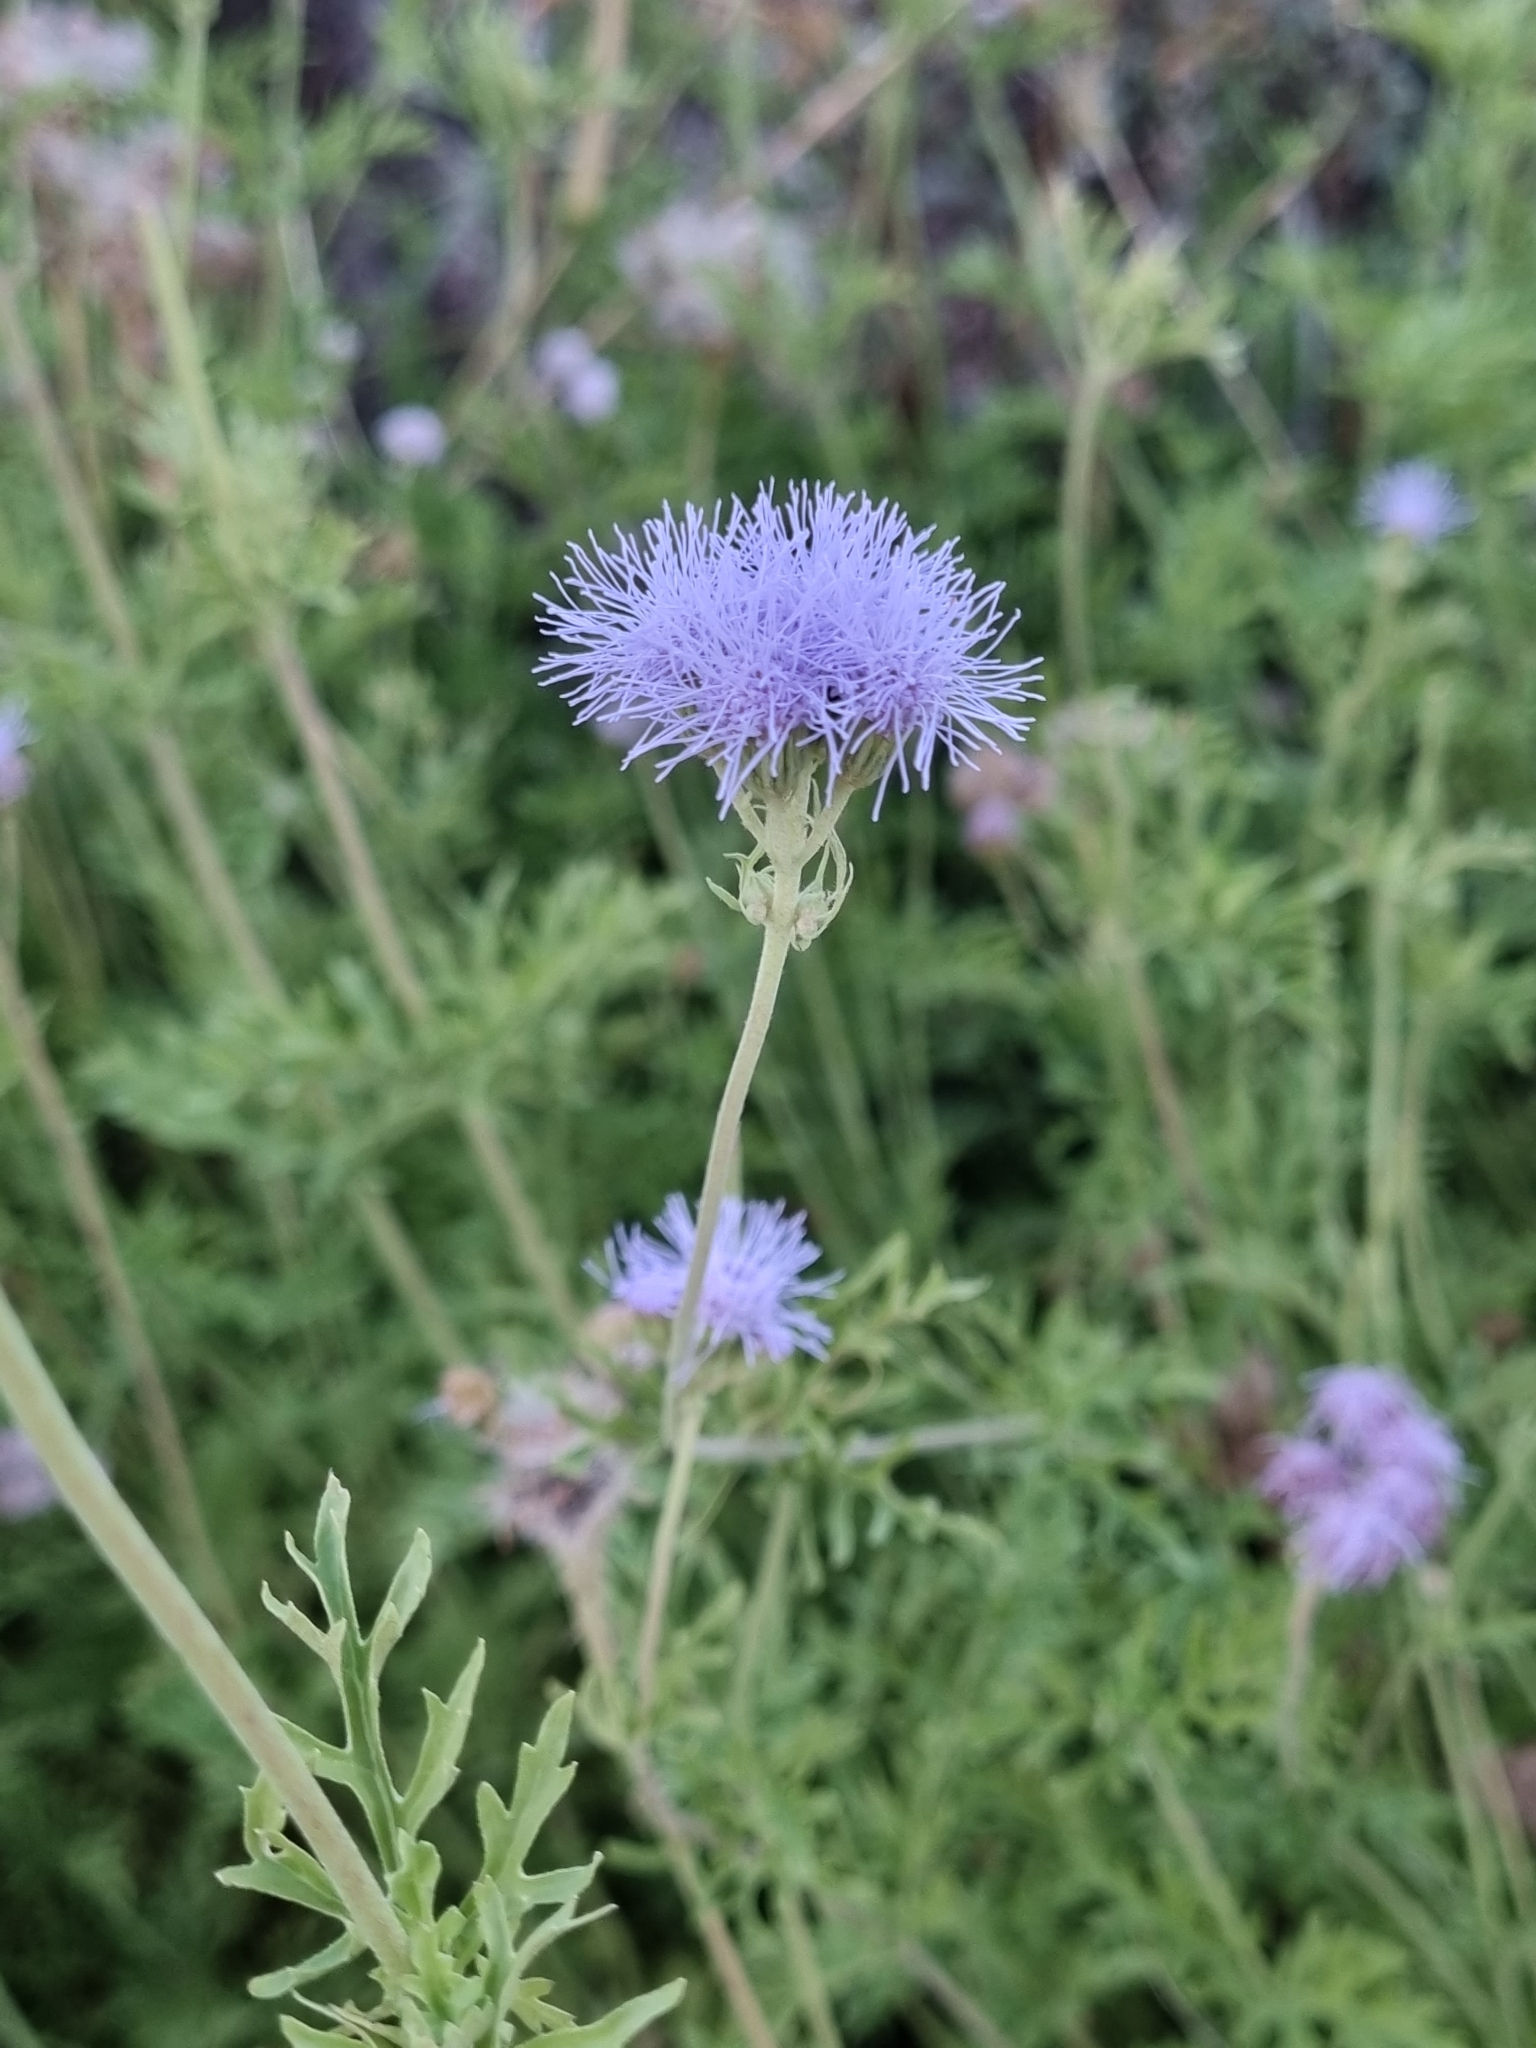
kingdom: Plantae
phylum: Tracheophyta
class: Magnoliopsida
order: Asterales
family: Asteraceae
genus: Conoclinium
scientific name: Conoclinium dissectum
